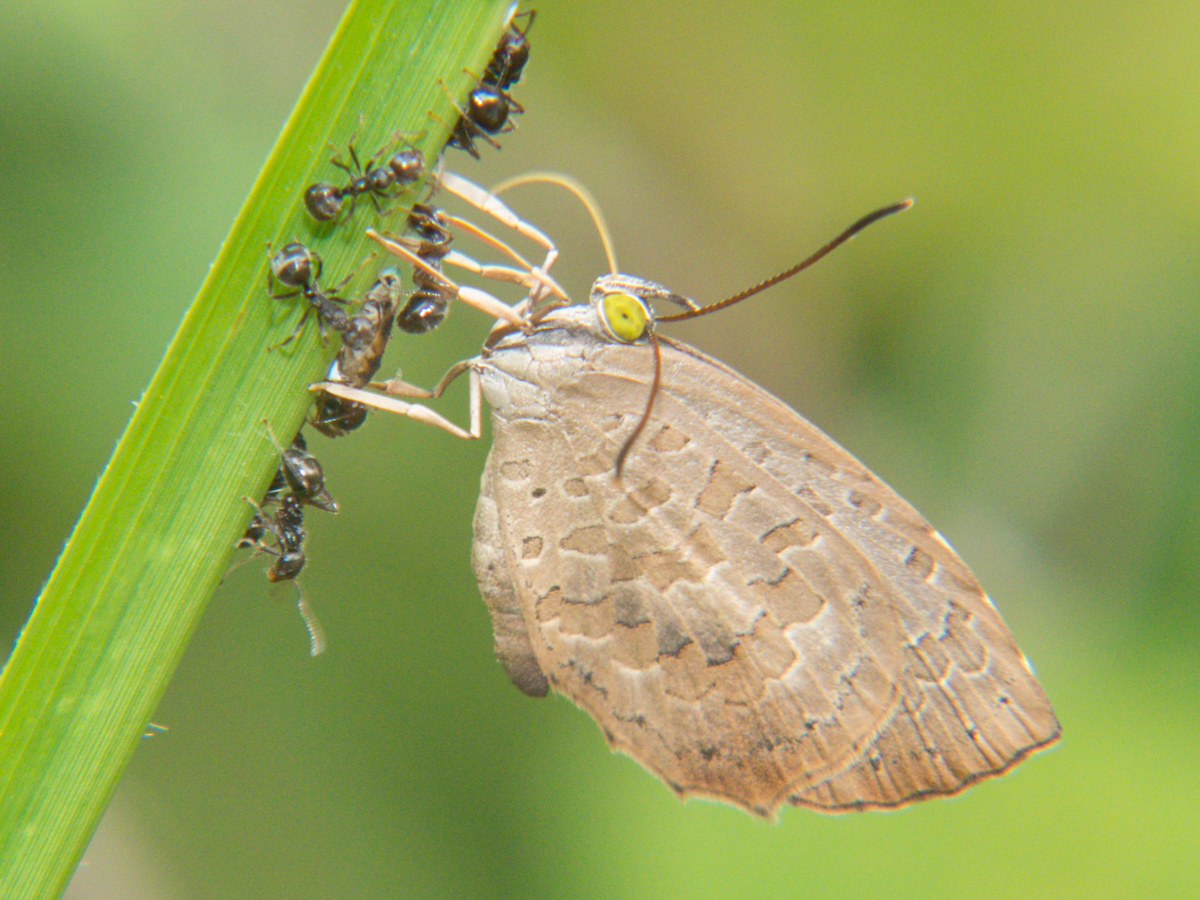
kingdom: Animalia
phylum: Arthropoda
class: Insecta
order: Lepidoptera
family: Lycaenidae
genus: Miletus
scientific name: Miletus chinensis
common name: Common brownie
